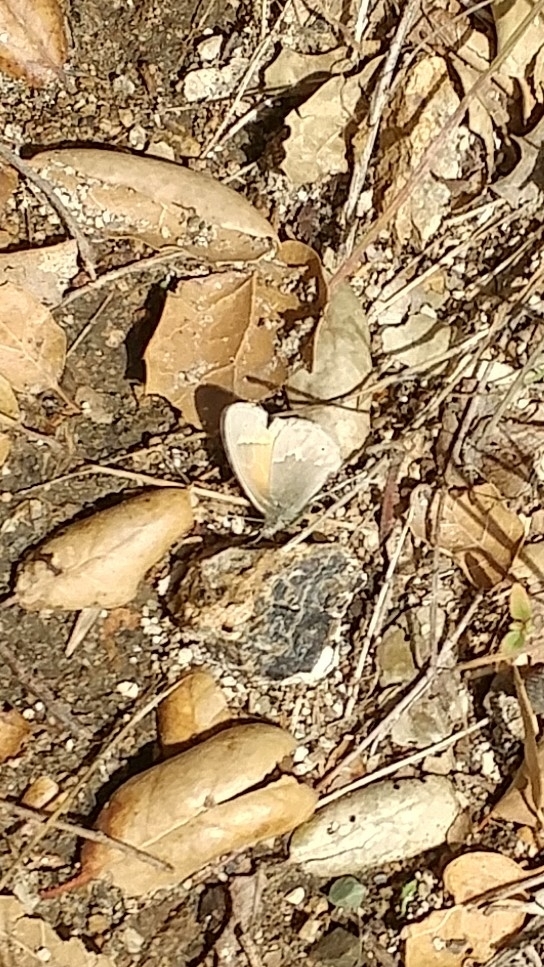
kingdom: Animalia
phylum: Arthropoda
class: Insecta
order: Lepidoptera
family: Nymphalidae
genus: Coenonympha
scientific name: Coenonympha california
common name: Common ringlet
